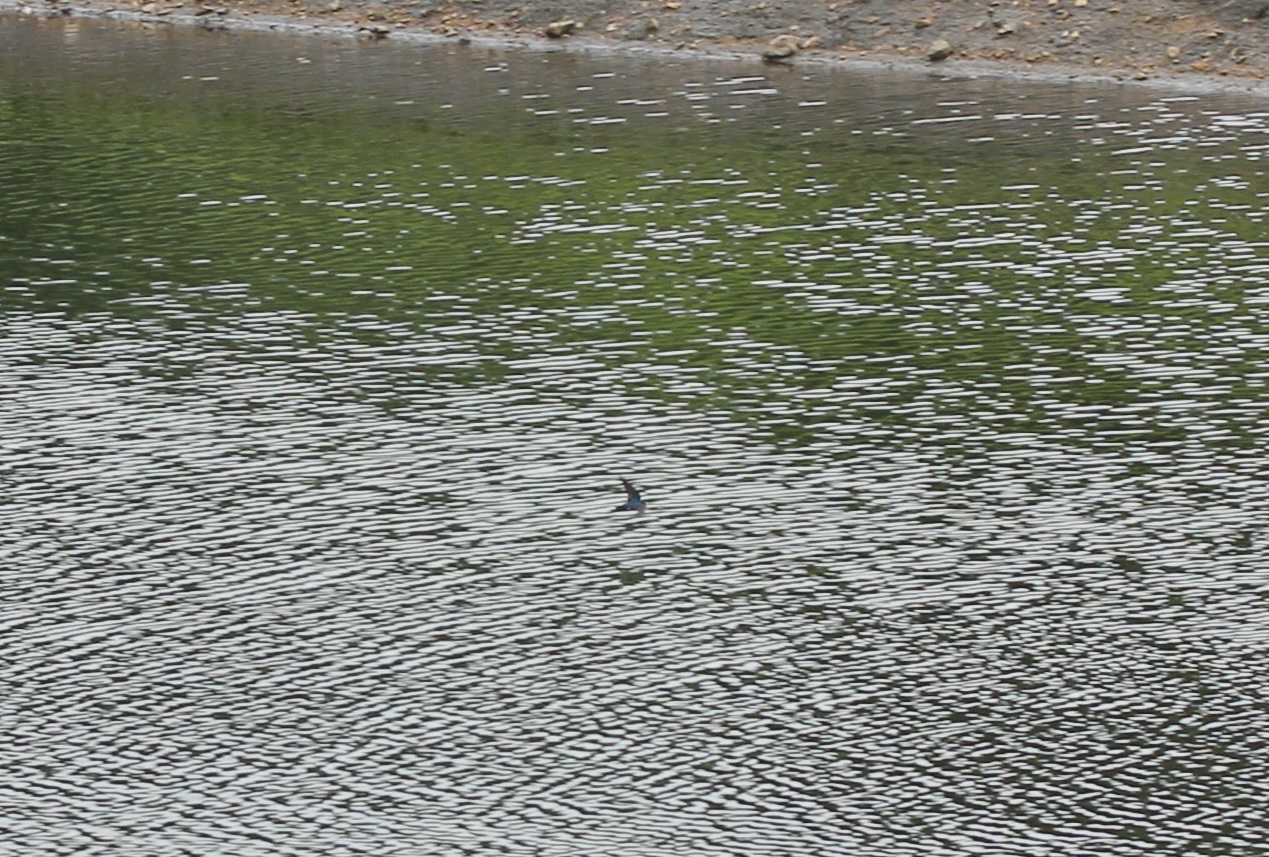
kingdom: Animalia
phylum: Chordata
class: Aves
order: Passeriformes
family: Hirundinidae
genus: Tachycineta
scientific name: Tachycineta bicolor
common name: Tree swallow
